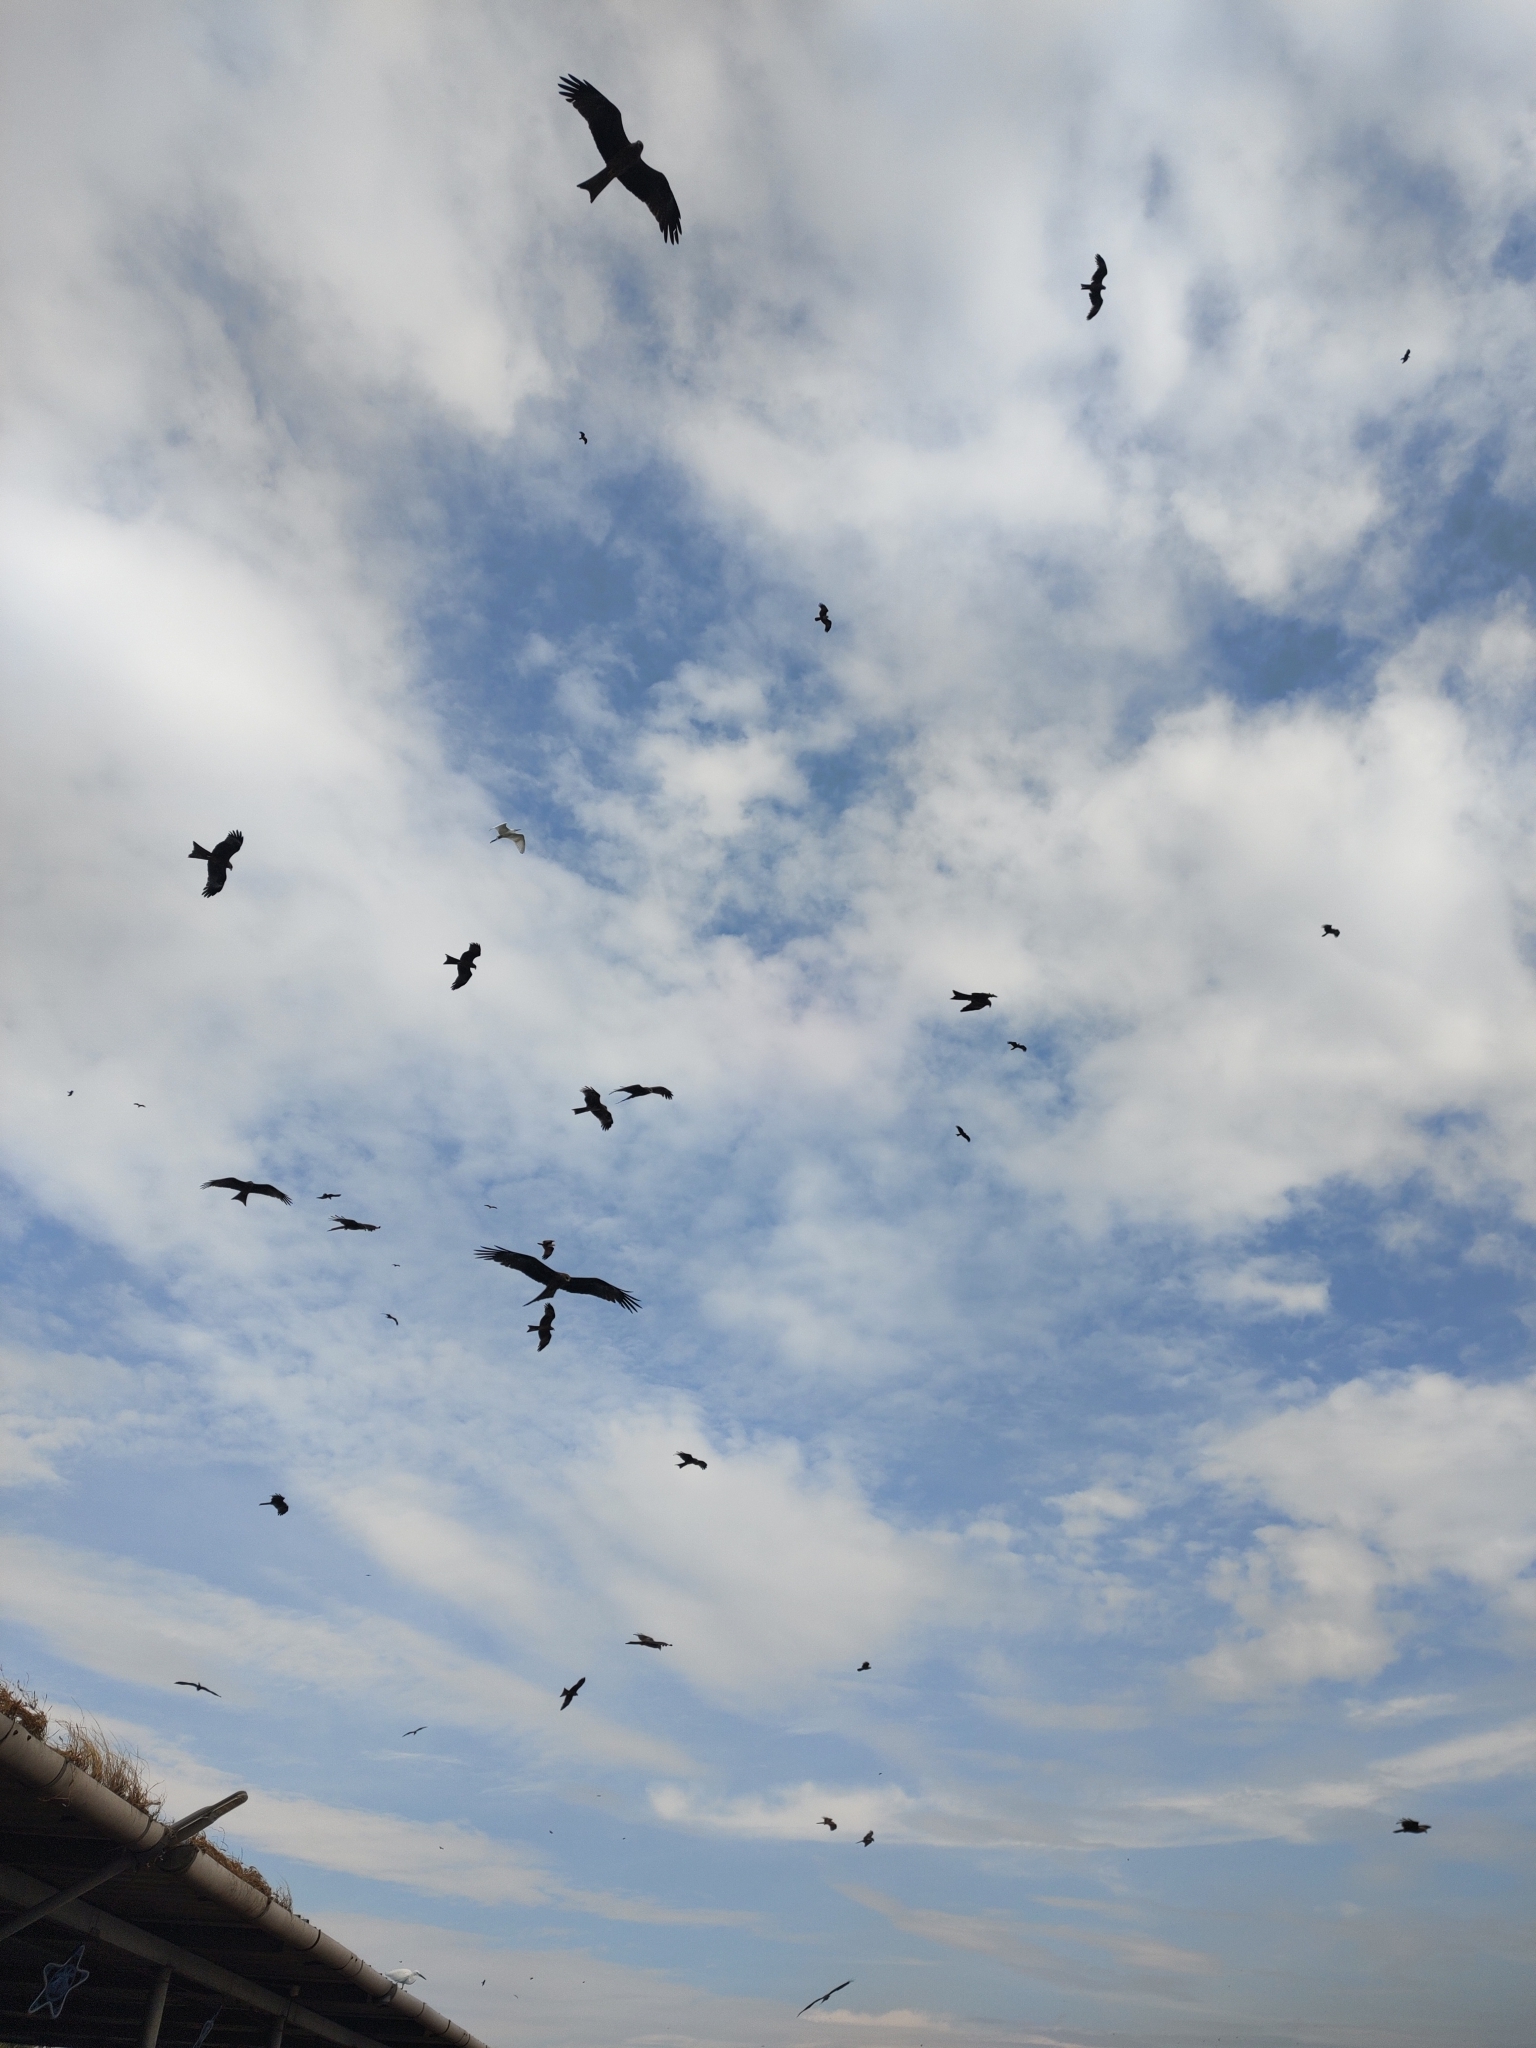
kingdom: Animalia
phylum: Chordata
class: Aves
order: Accipitriformes
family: Accipitridae
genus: Milvus
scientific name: Milvus migrans
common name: Black kite
